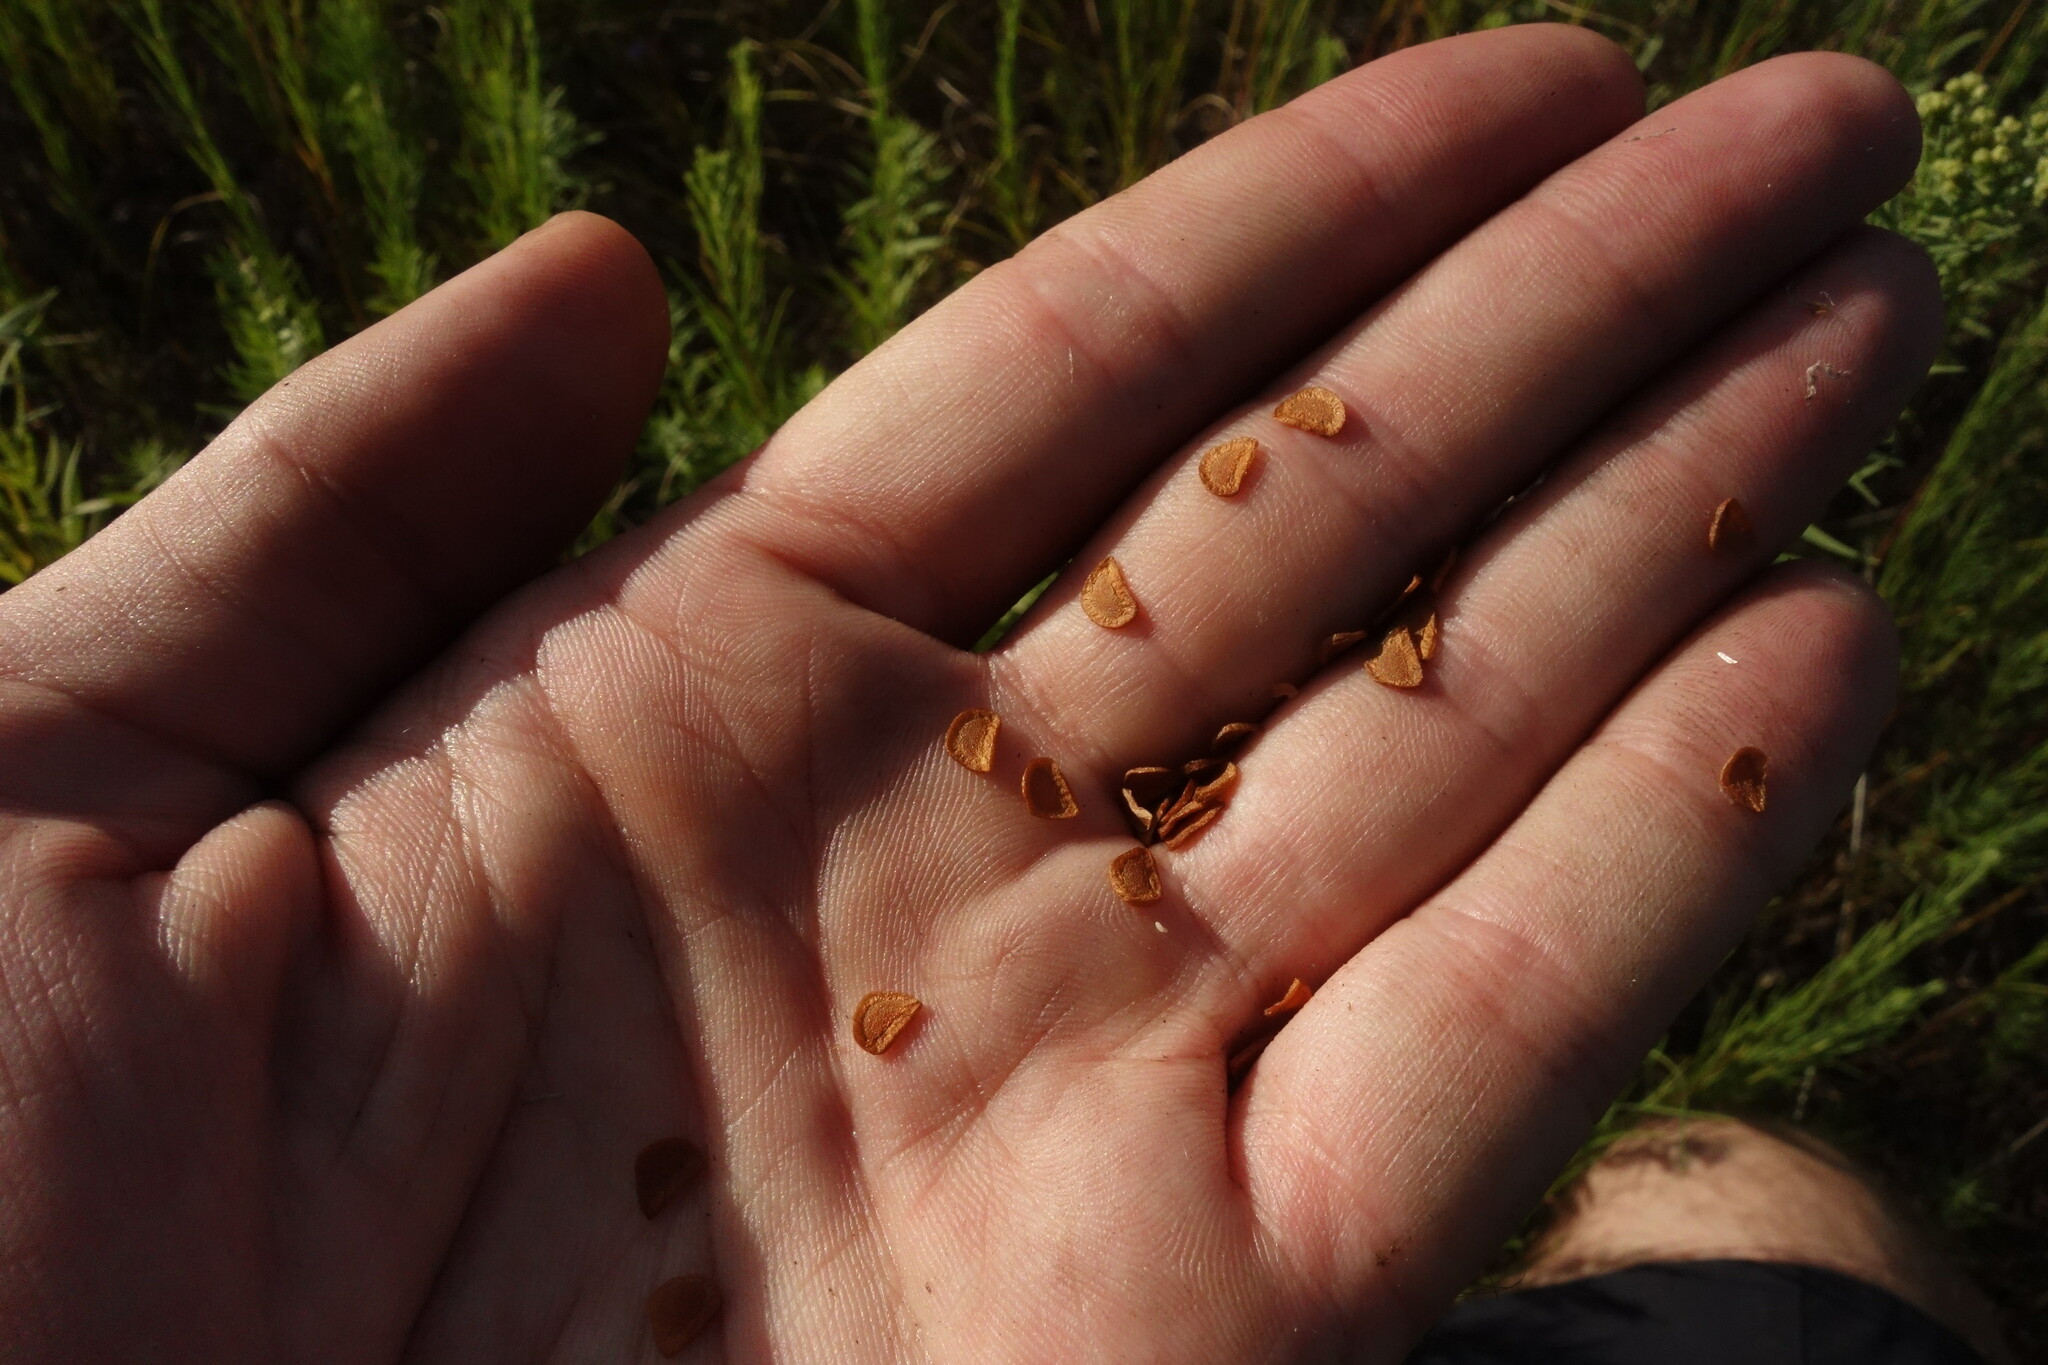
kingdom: Plantae
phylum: Tracheophyta
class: Liliopsida
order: Liliales
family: Liliaceae
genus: Fritillaria
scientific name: Fritillaria ruthenica
